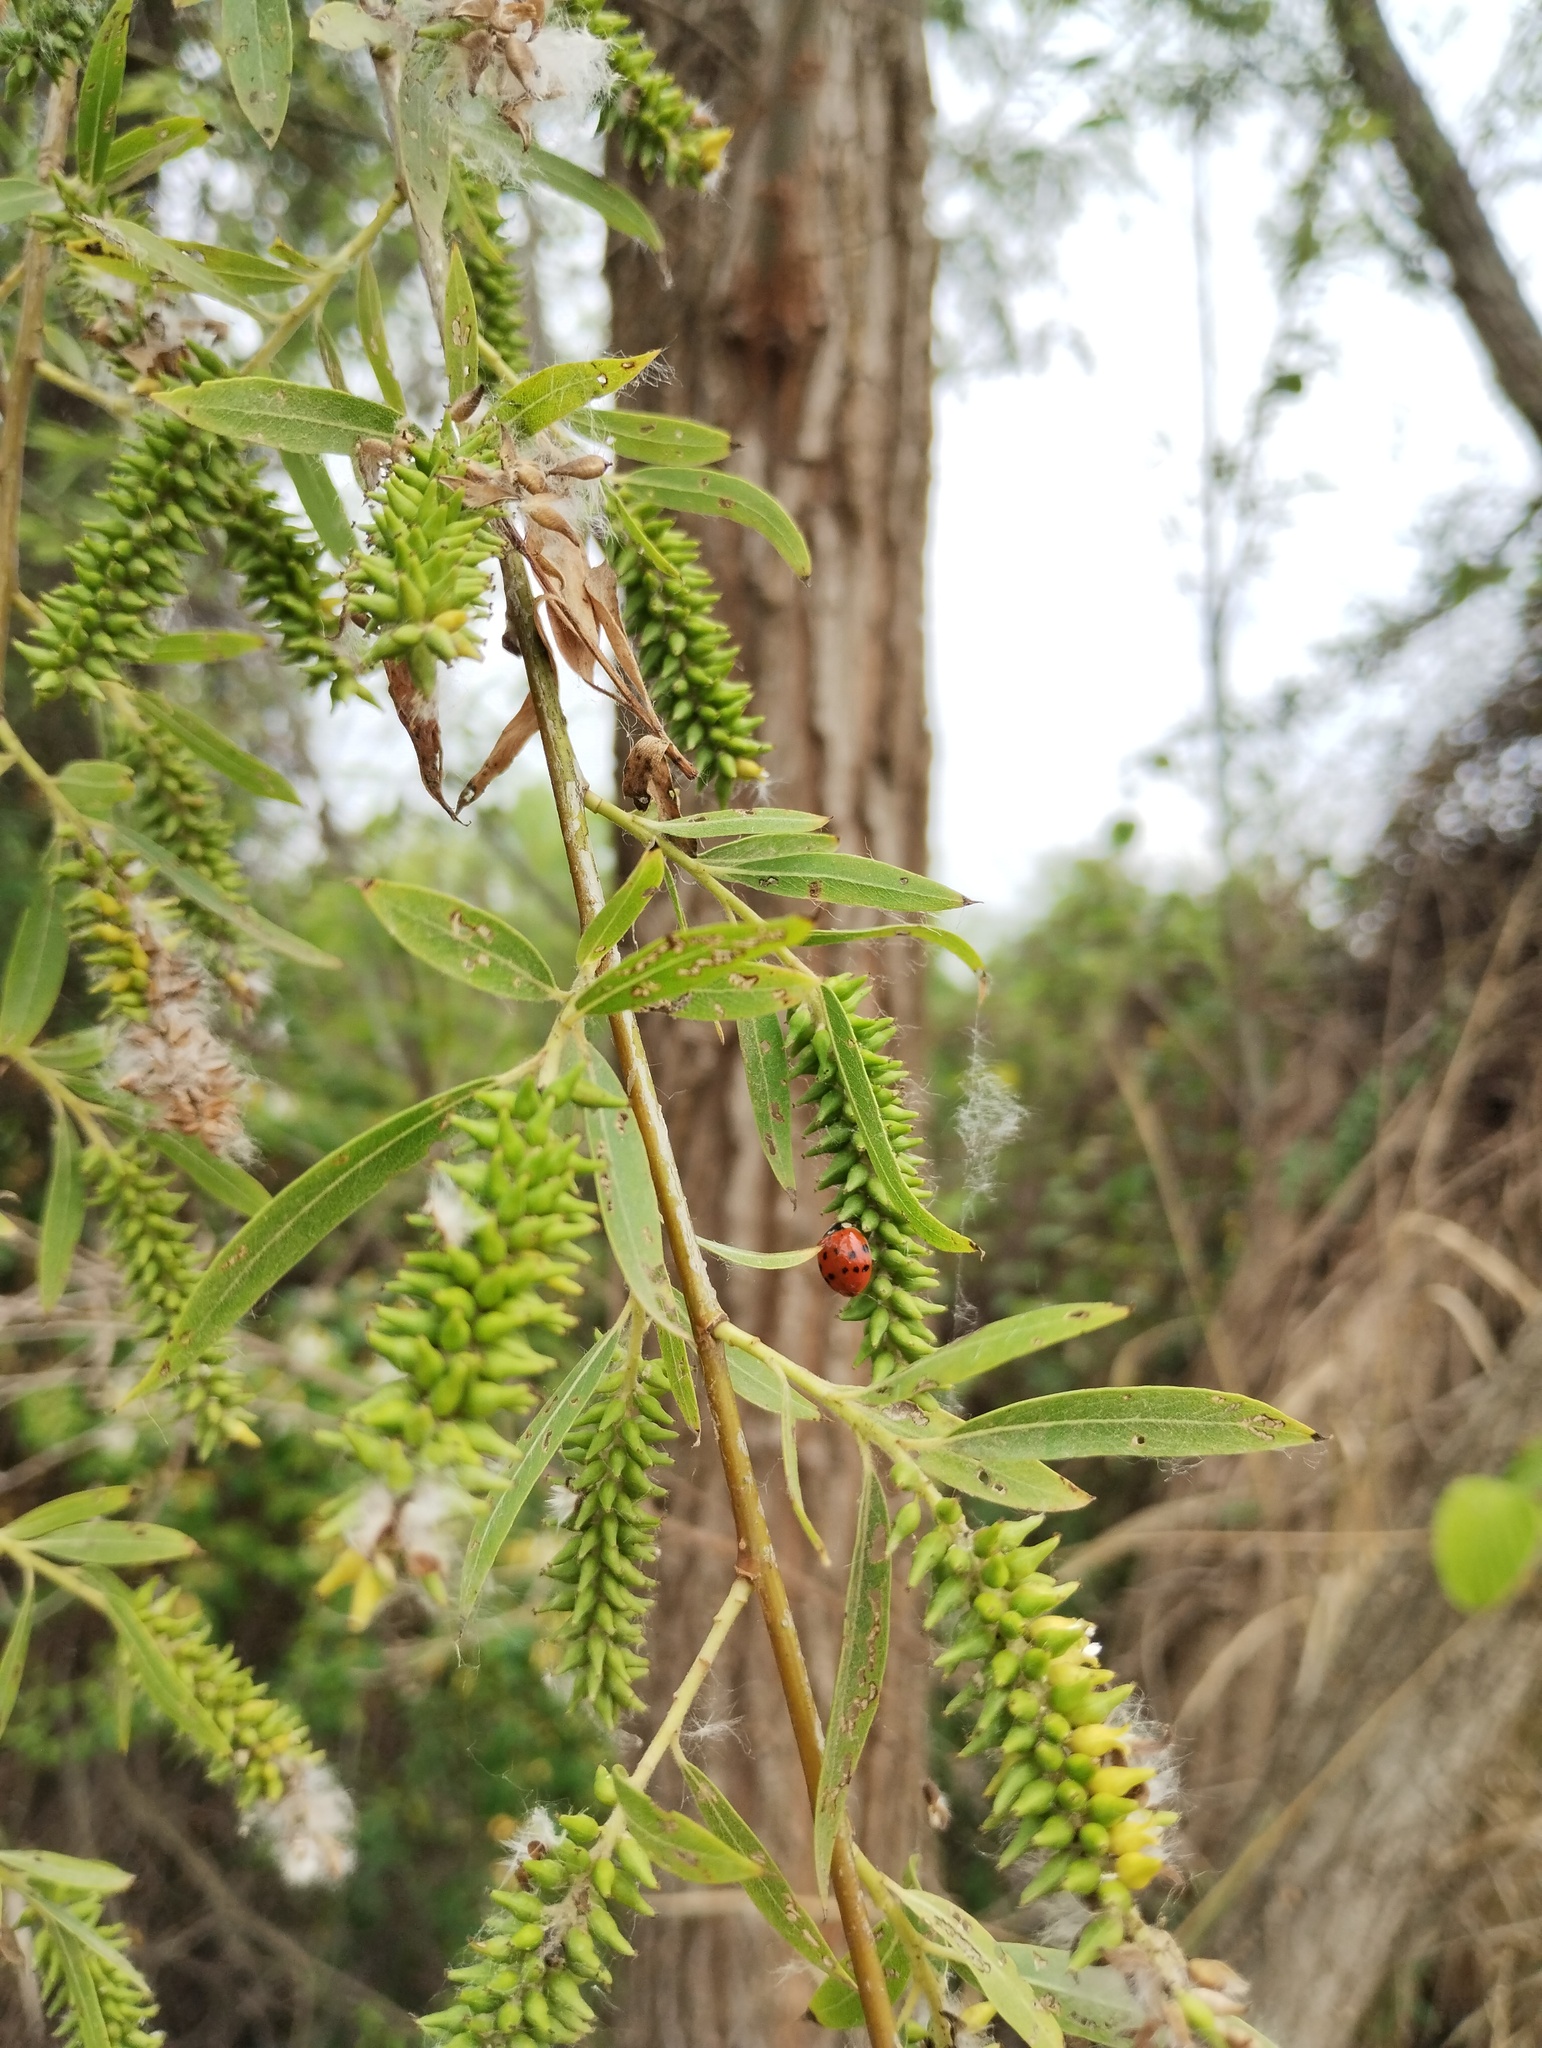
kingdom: Animalia
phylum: Arthropoda
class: Insecta
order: Coleoptera
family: Coccinellidae
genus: Harmonia
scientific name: Harmonia axyridis
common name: Harlequin ladybird
